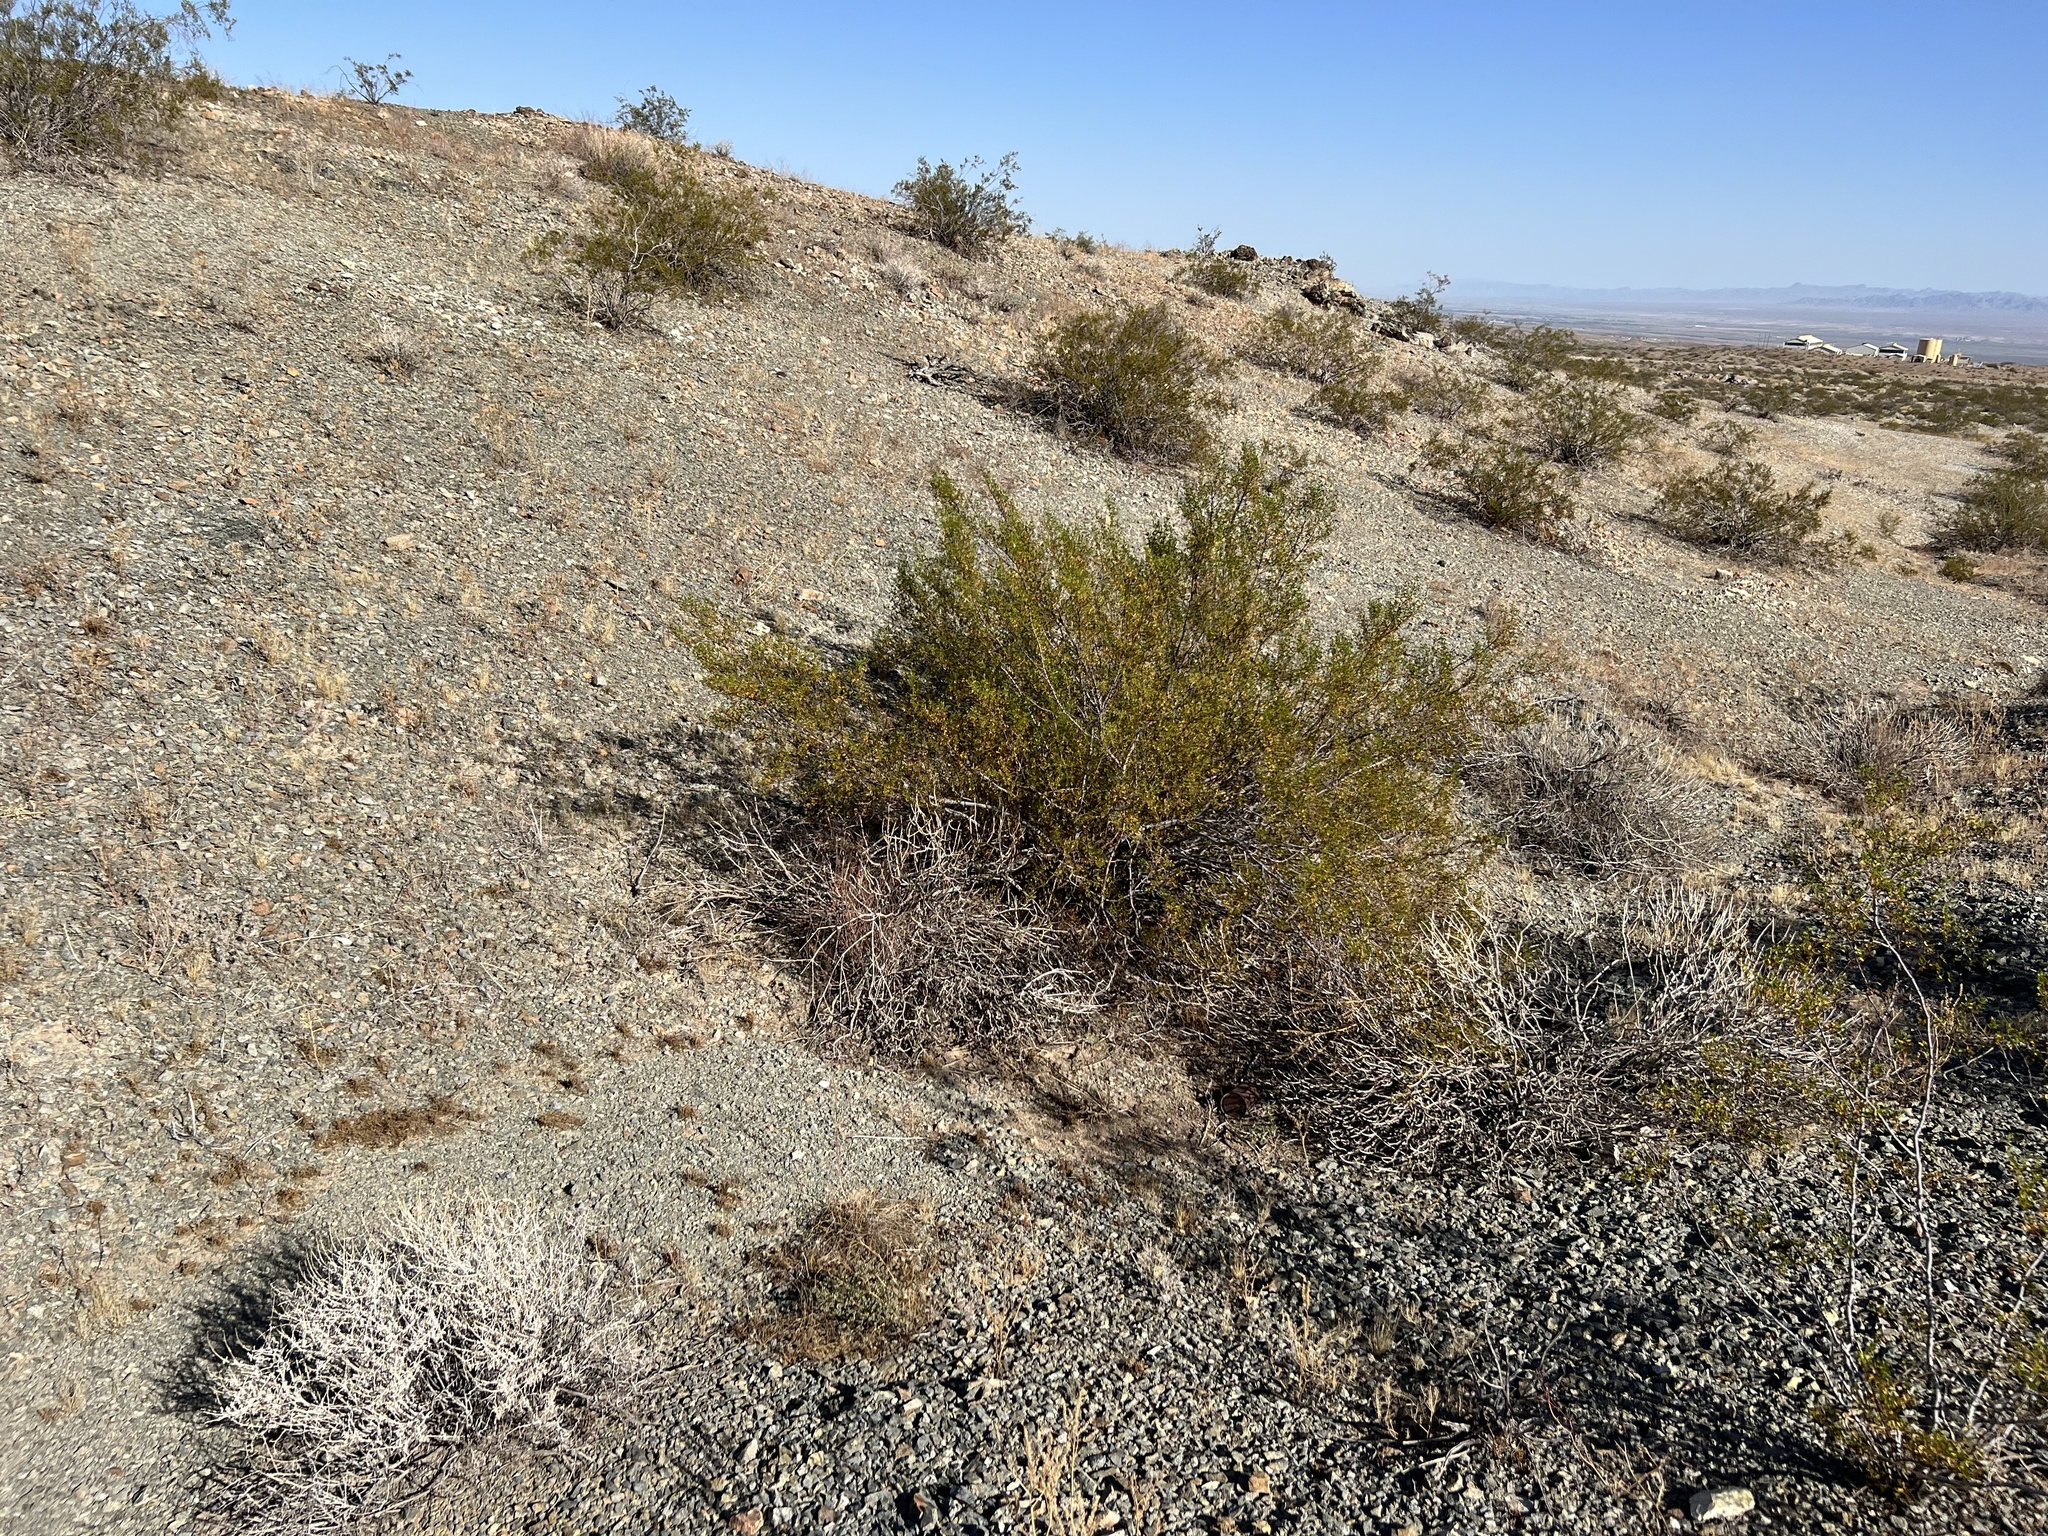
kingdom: Plantae
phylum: Tracheophyta
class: Magnoliopsida
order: Zygophyllales
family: Zygophyllaceae
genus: Larrea
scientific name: Larrea tridentata
